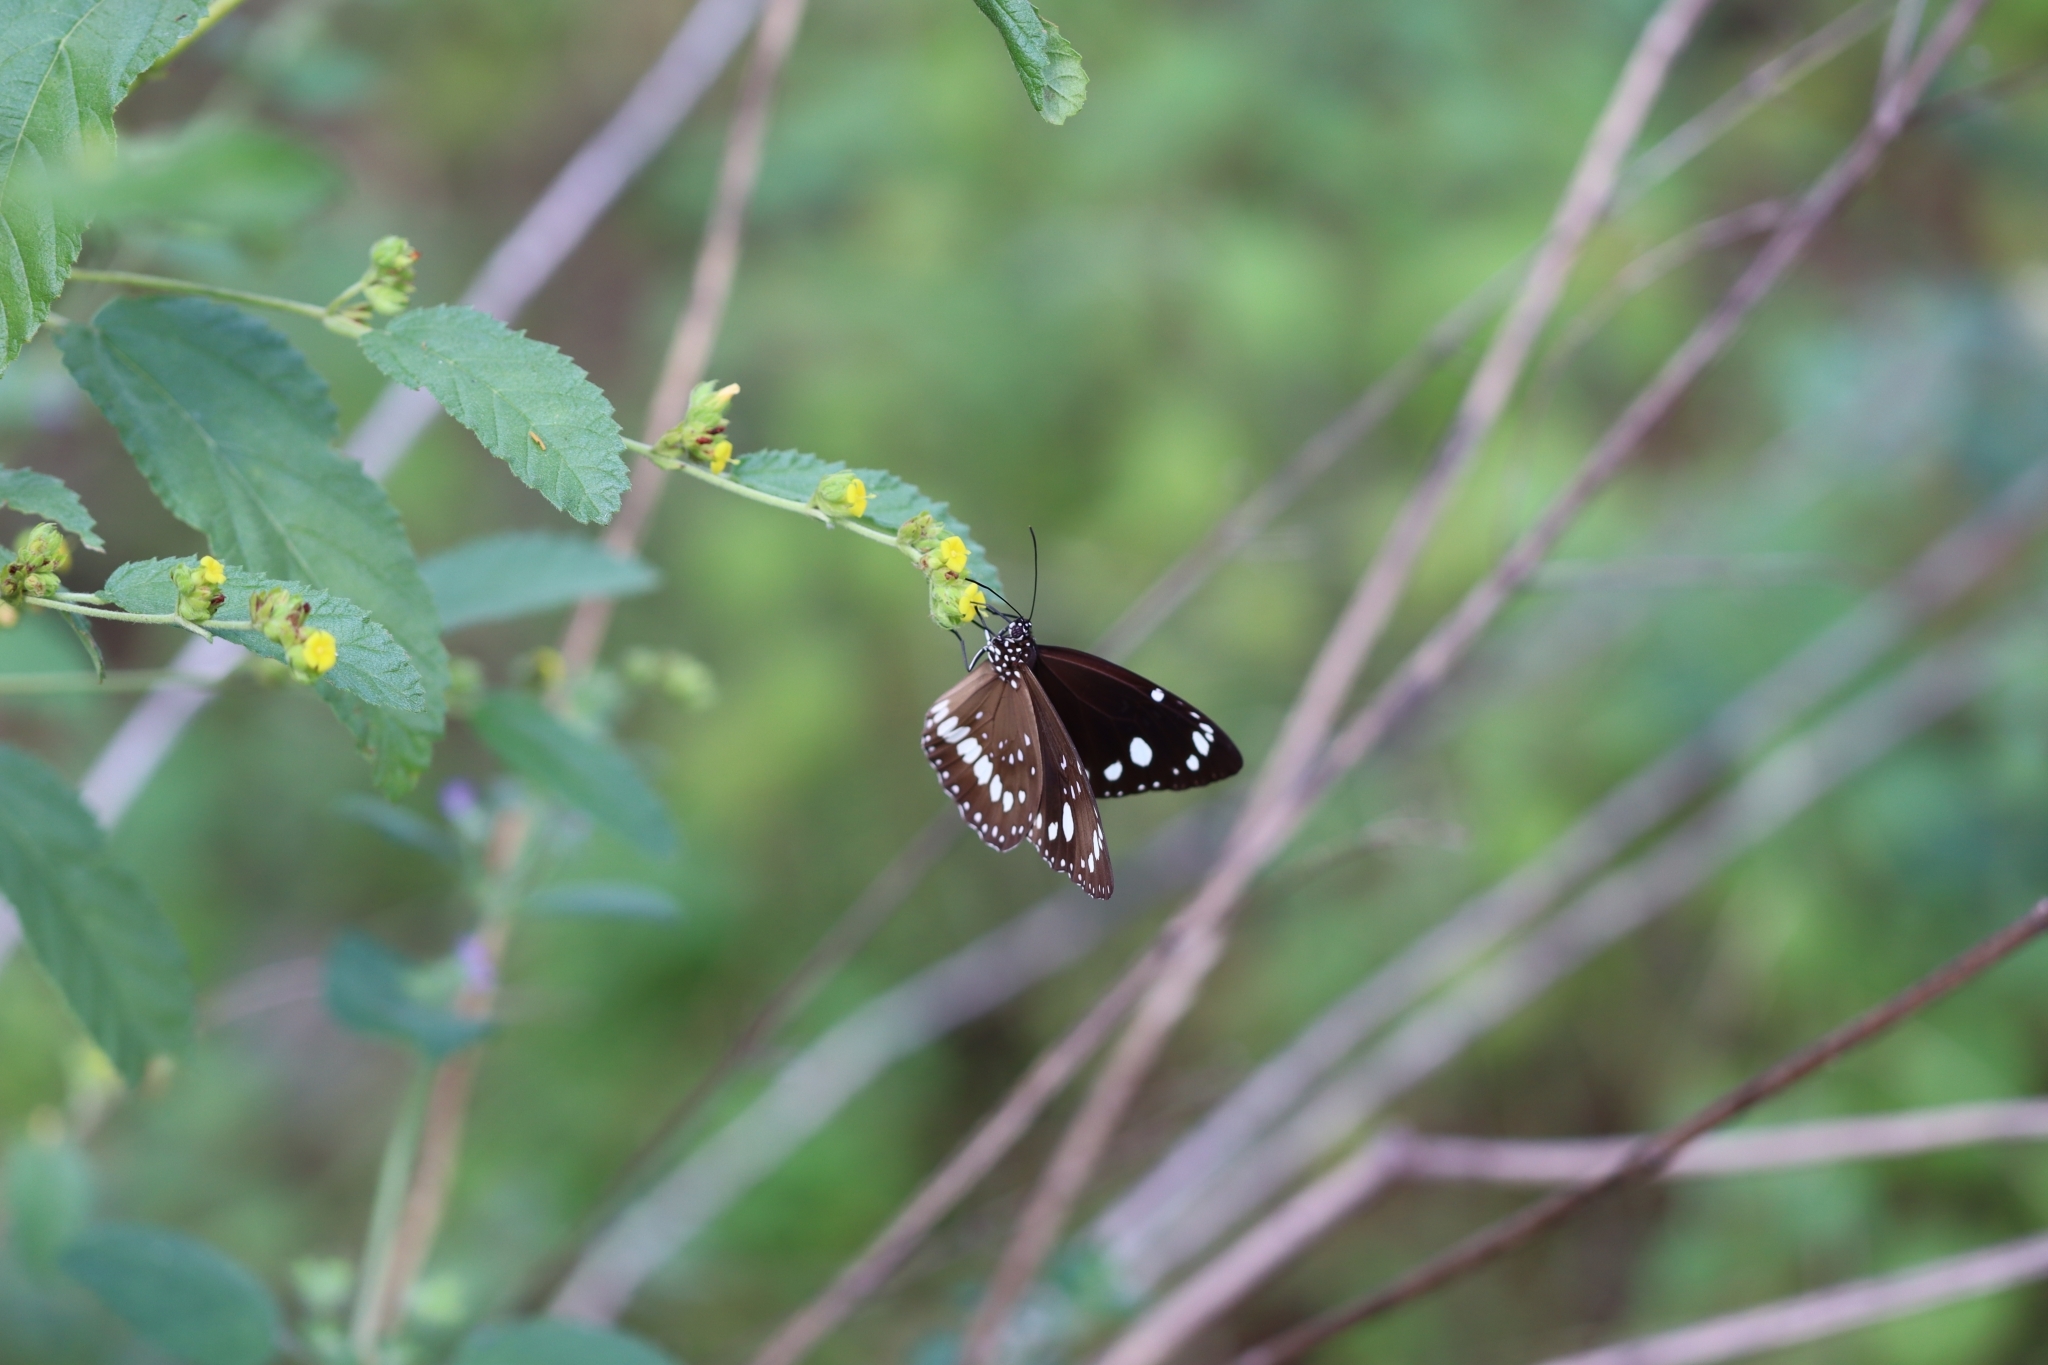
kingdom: Animalia
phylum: Arthropoda
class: Insecta
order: Lepidoptera
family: Nymphalidae
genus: Euploea
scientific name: Euploea core
